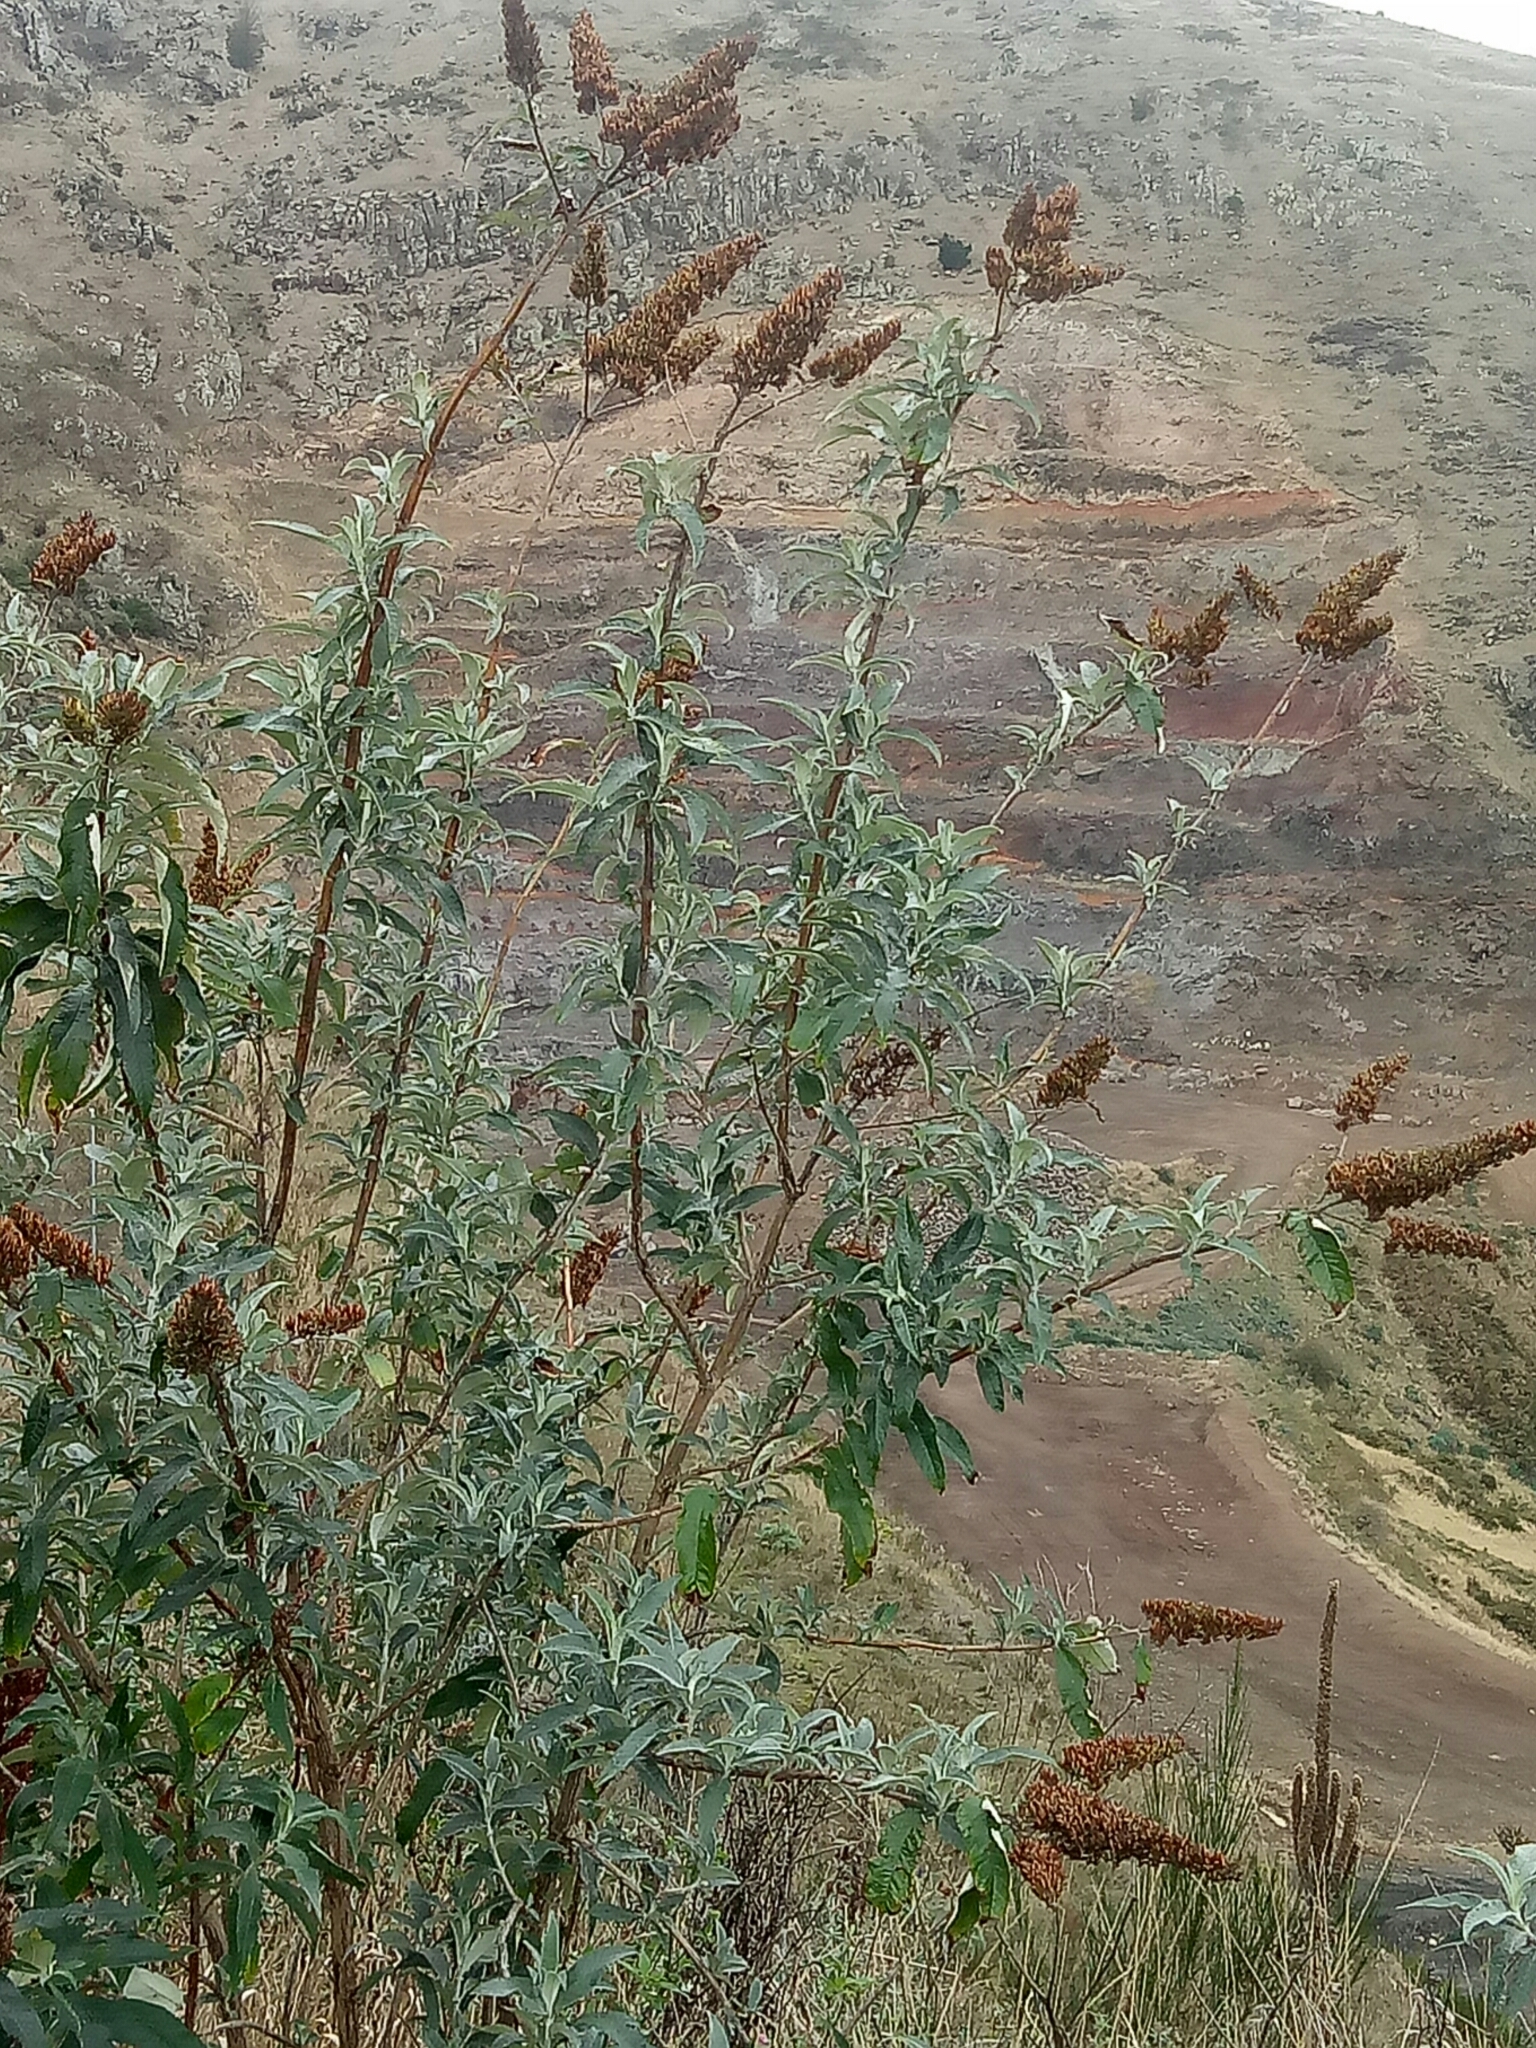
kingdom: Plantae
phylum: Tracheophyta
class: Magnoliopsida
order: Lamiales
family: Scrophulariaceae
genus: Buddleja
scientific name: Buddleja davidii
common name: Butterfly-bush
